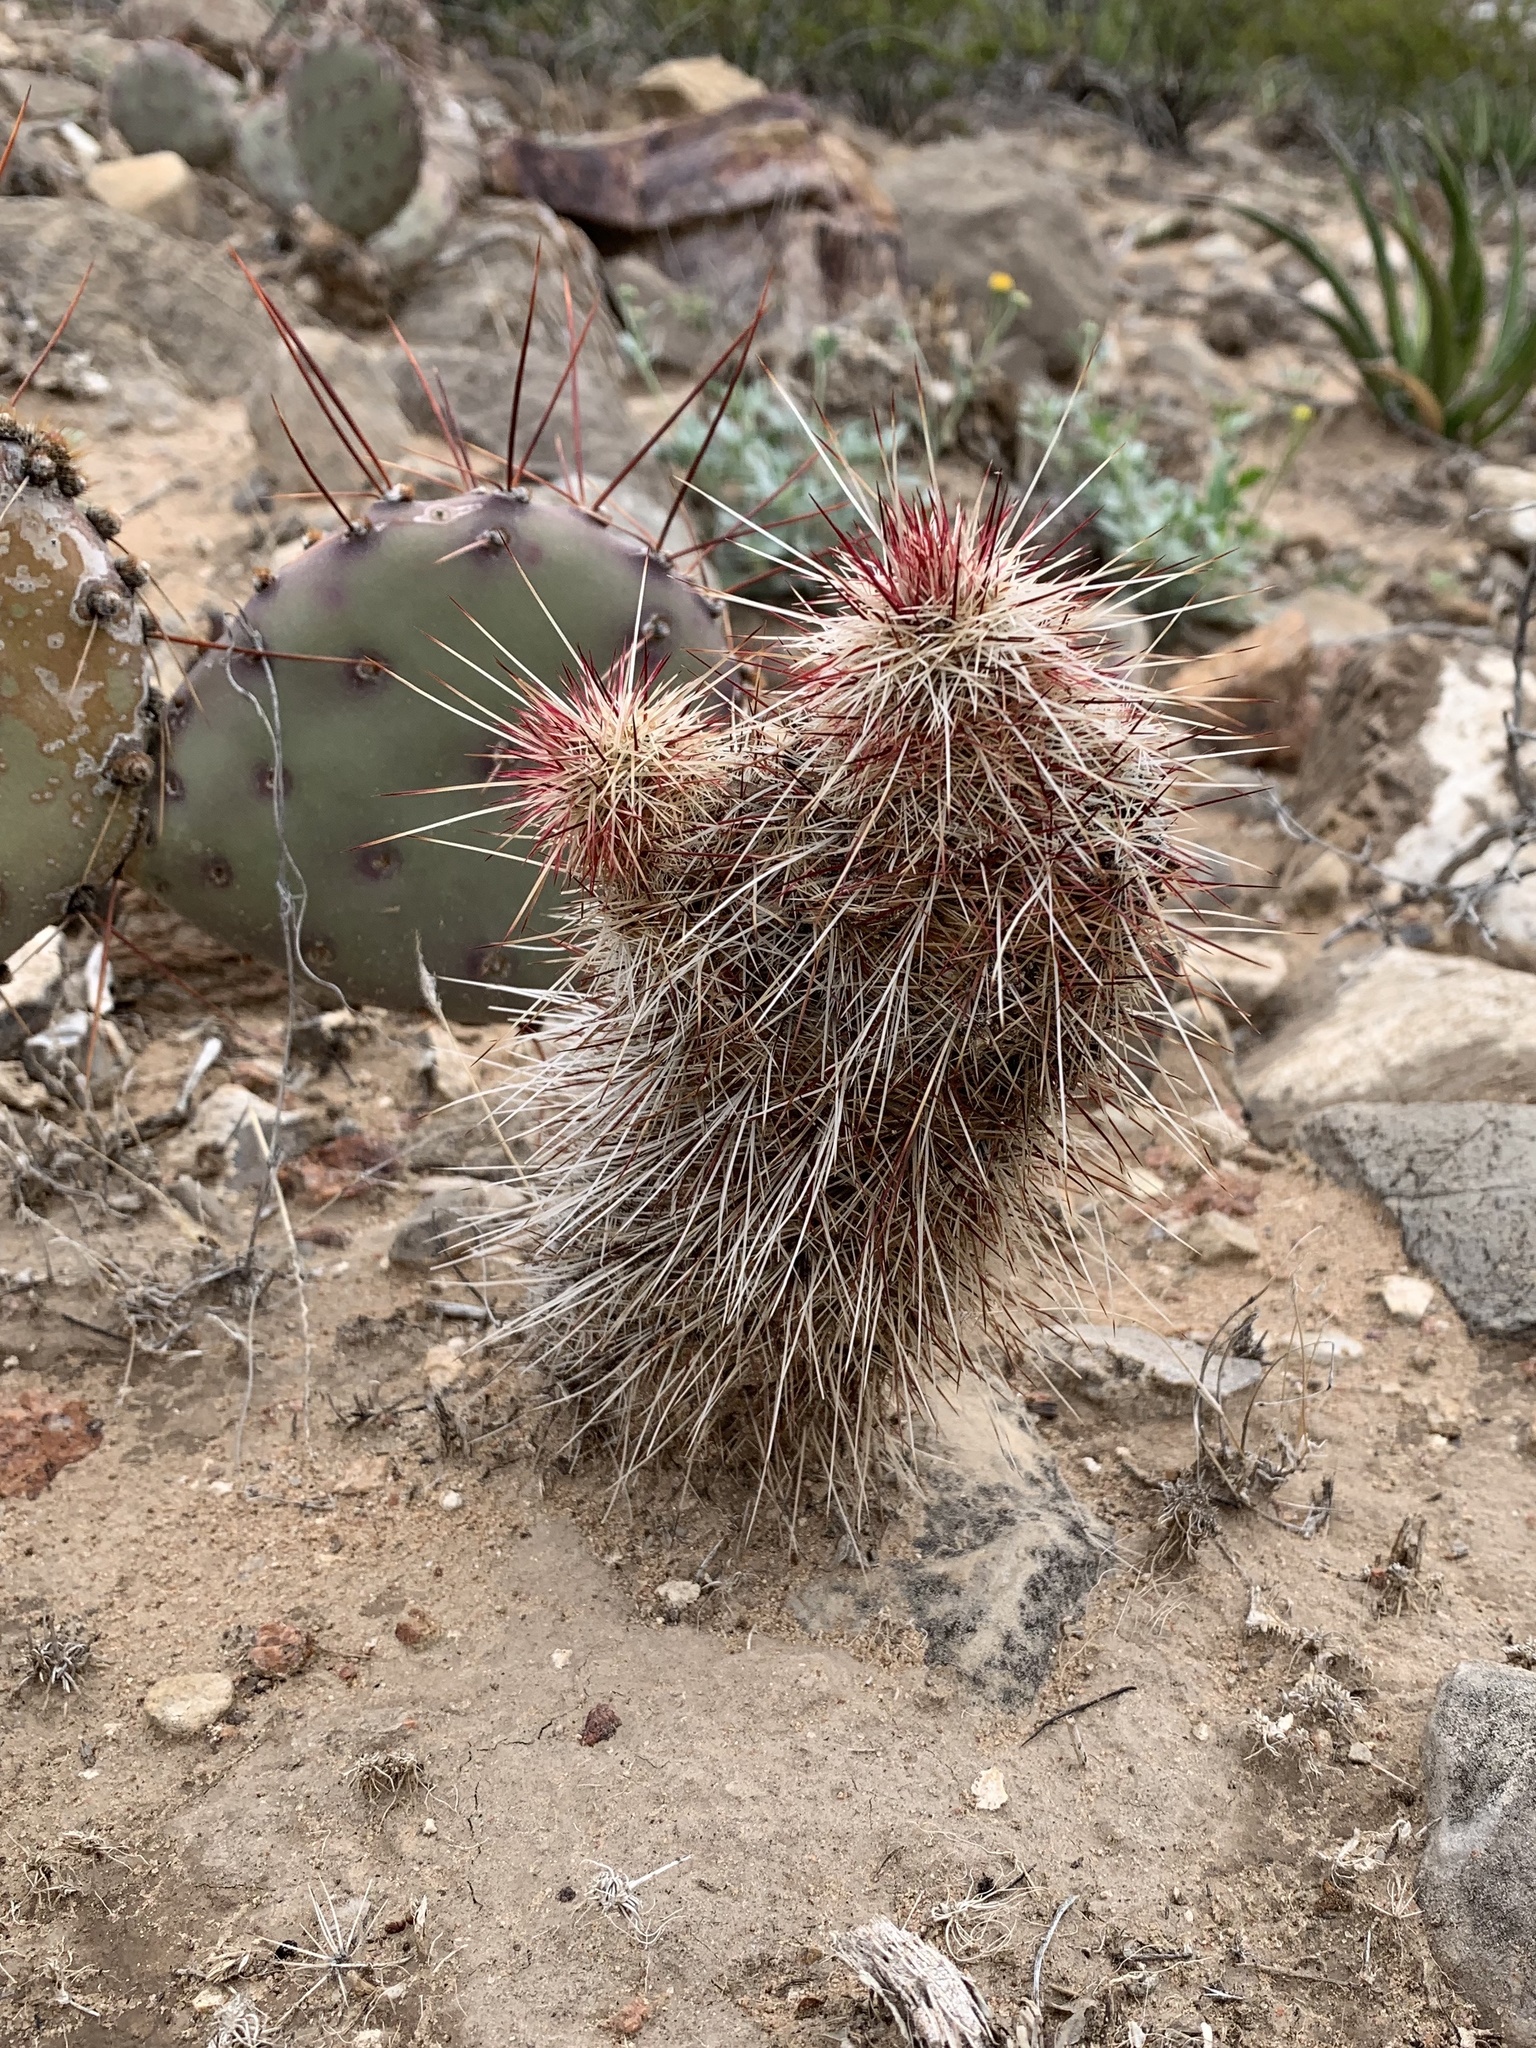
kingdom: Plantae
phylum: Tracheophyta
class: Magnoliopsida
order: Caryophyllales
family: Cactaceae
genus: Echinocereus
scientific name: Echinocereus viridiflorus
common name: Nylon hedgehog cactus
